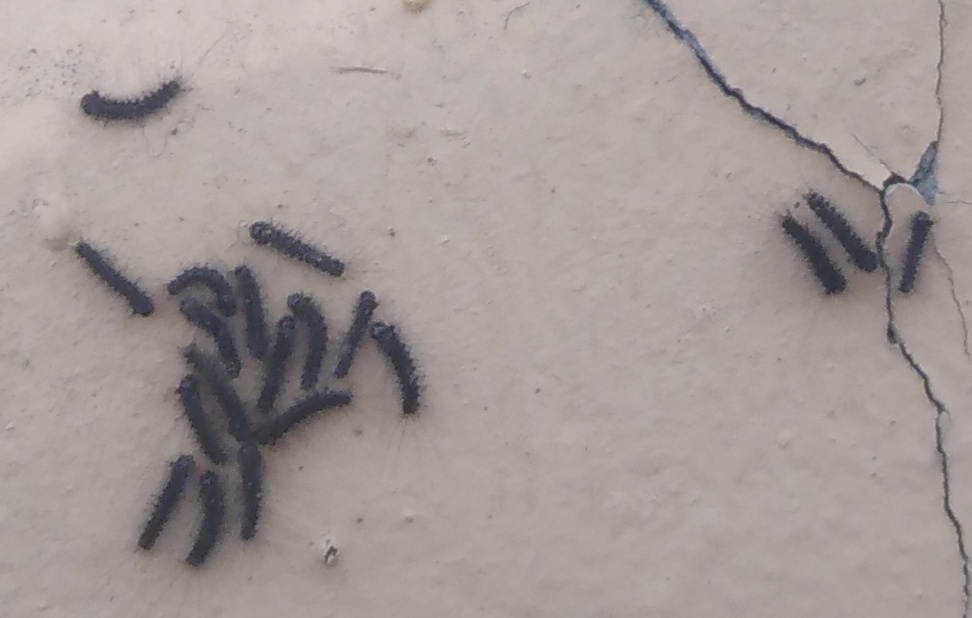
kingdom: Animalia
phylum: Arthropoda
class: Insecta
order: Lepidoptera
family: Erebidae
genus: Lymantria
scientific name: Lymantria dispar
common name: Gypsy moth
